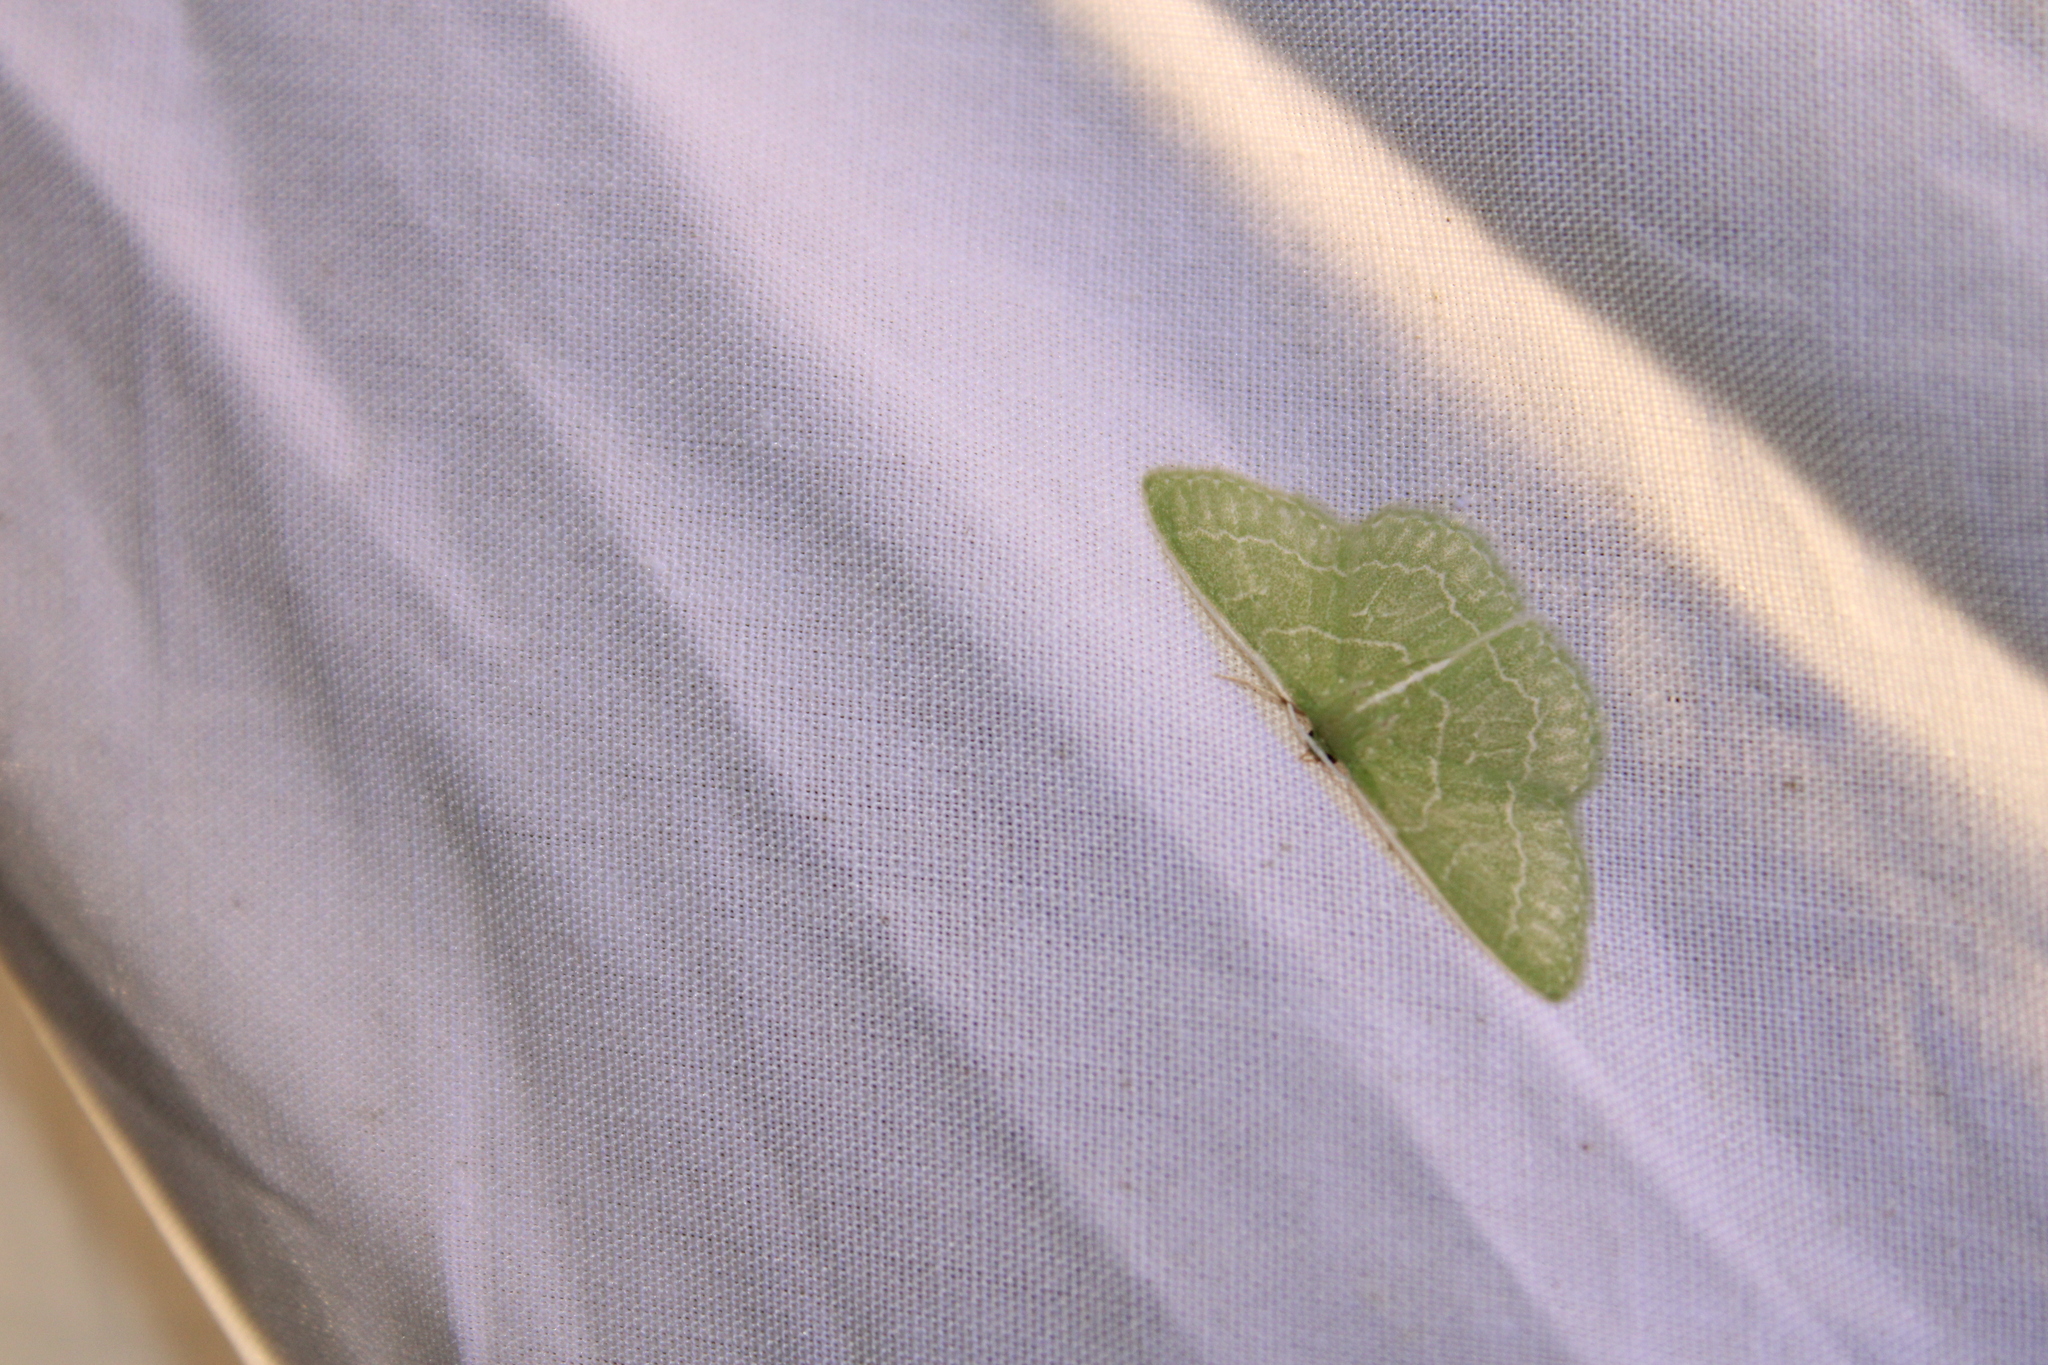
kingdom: Animalia
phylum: Arthropoda
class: Insecta
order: Lepidoptera
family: Geometridae
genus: Synchlora
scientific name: Synchlora aerata
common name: Wavy-lined emerald
